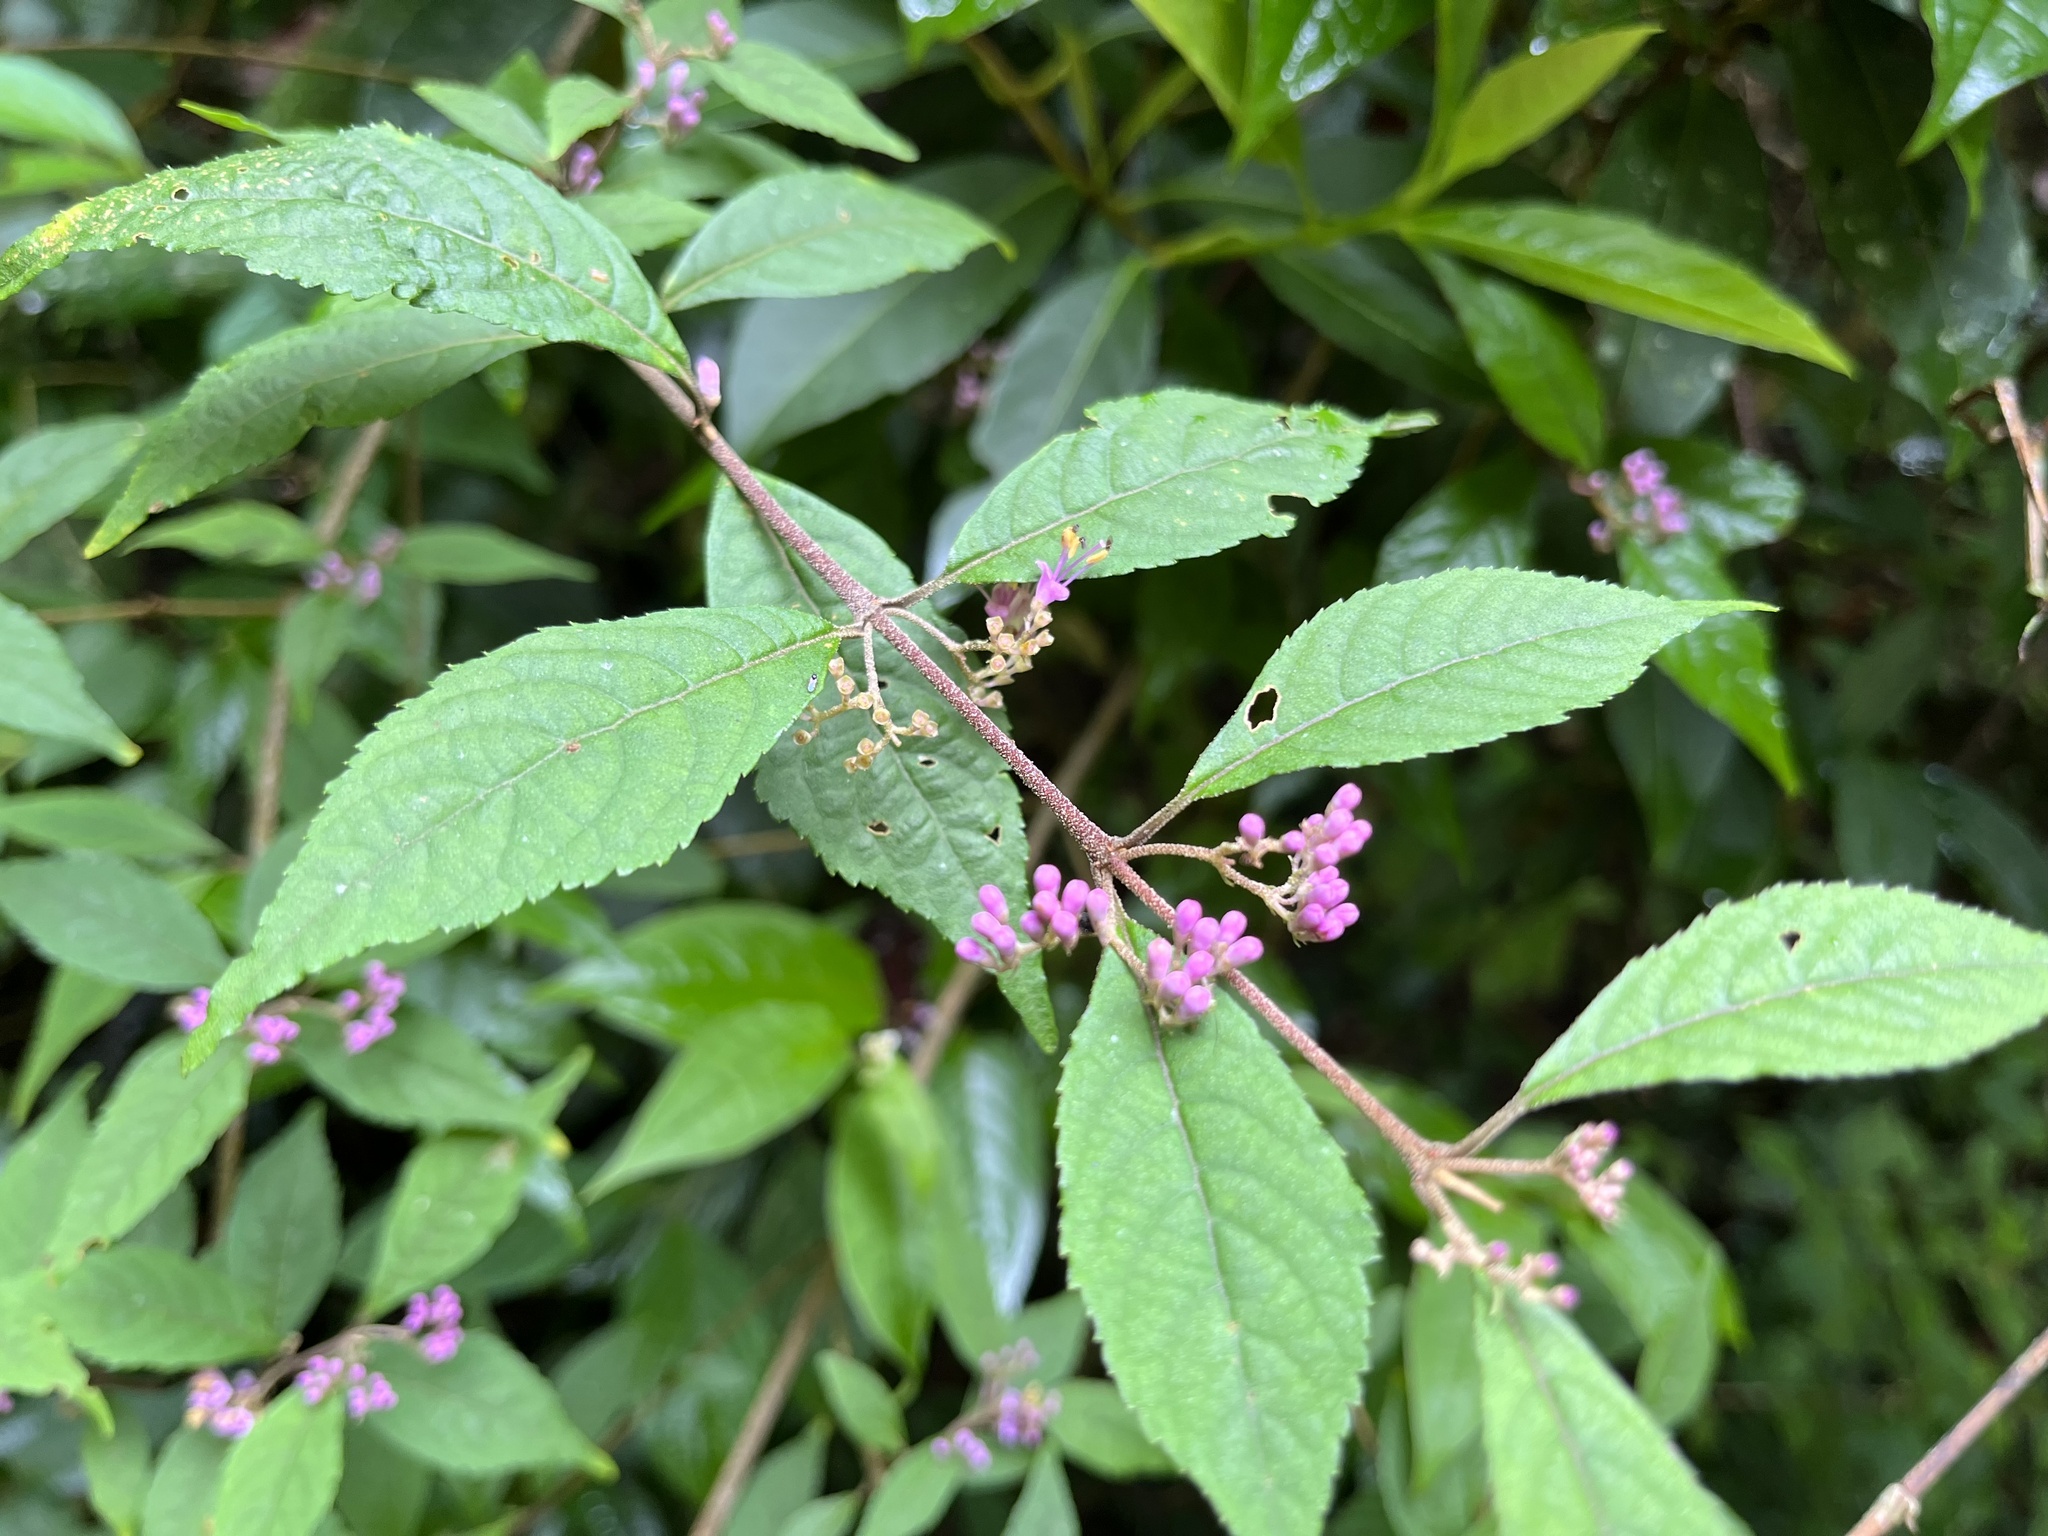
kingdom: Plantae
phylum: Tracheophyta
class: Magnoliopsida
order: Lamiales
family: Lamiaceae
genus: Callicarpa
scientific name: Callicarpa randaiensis
